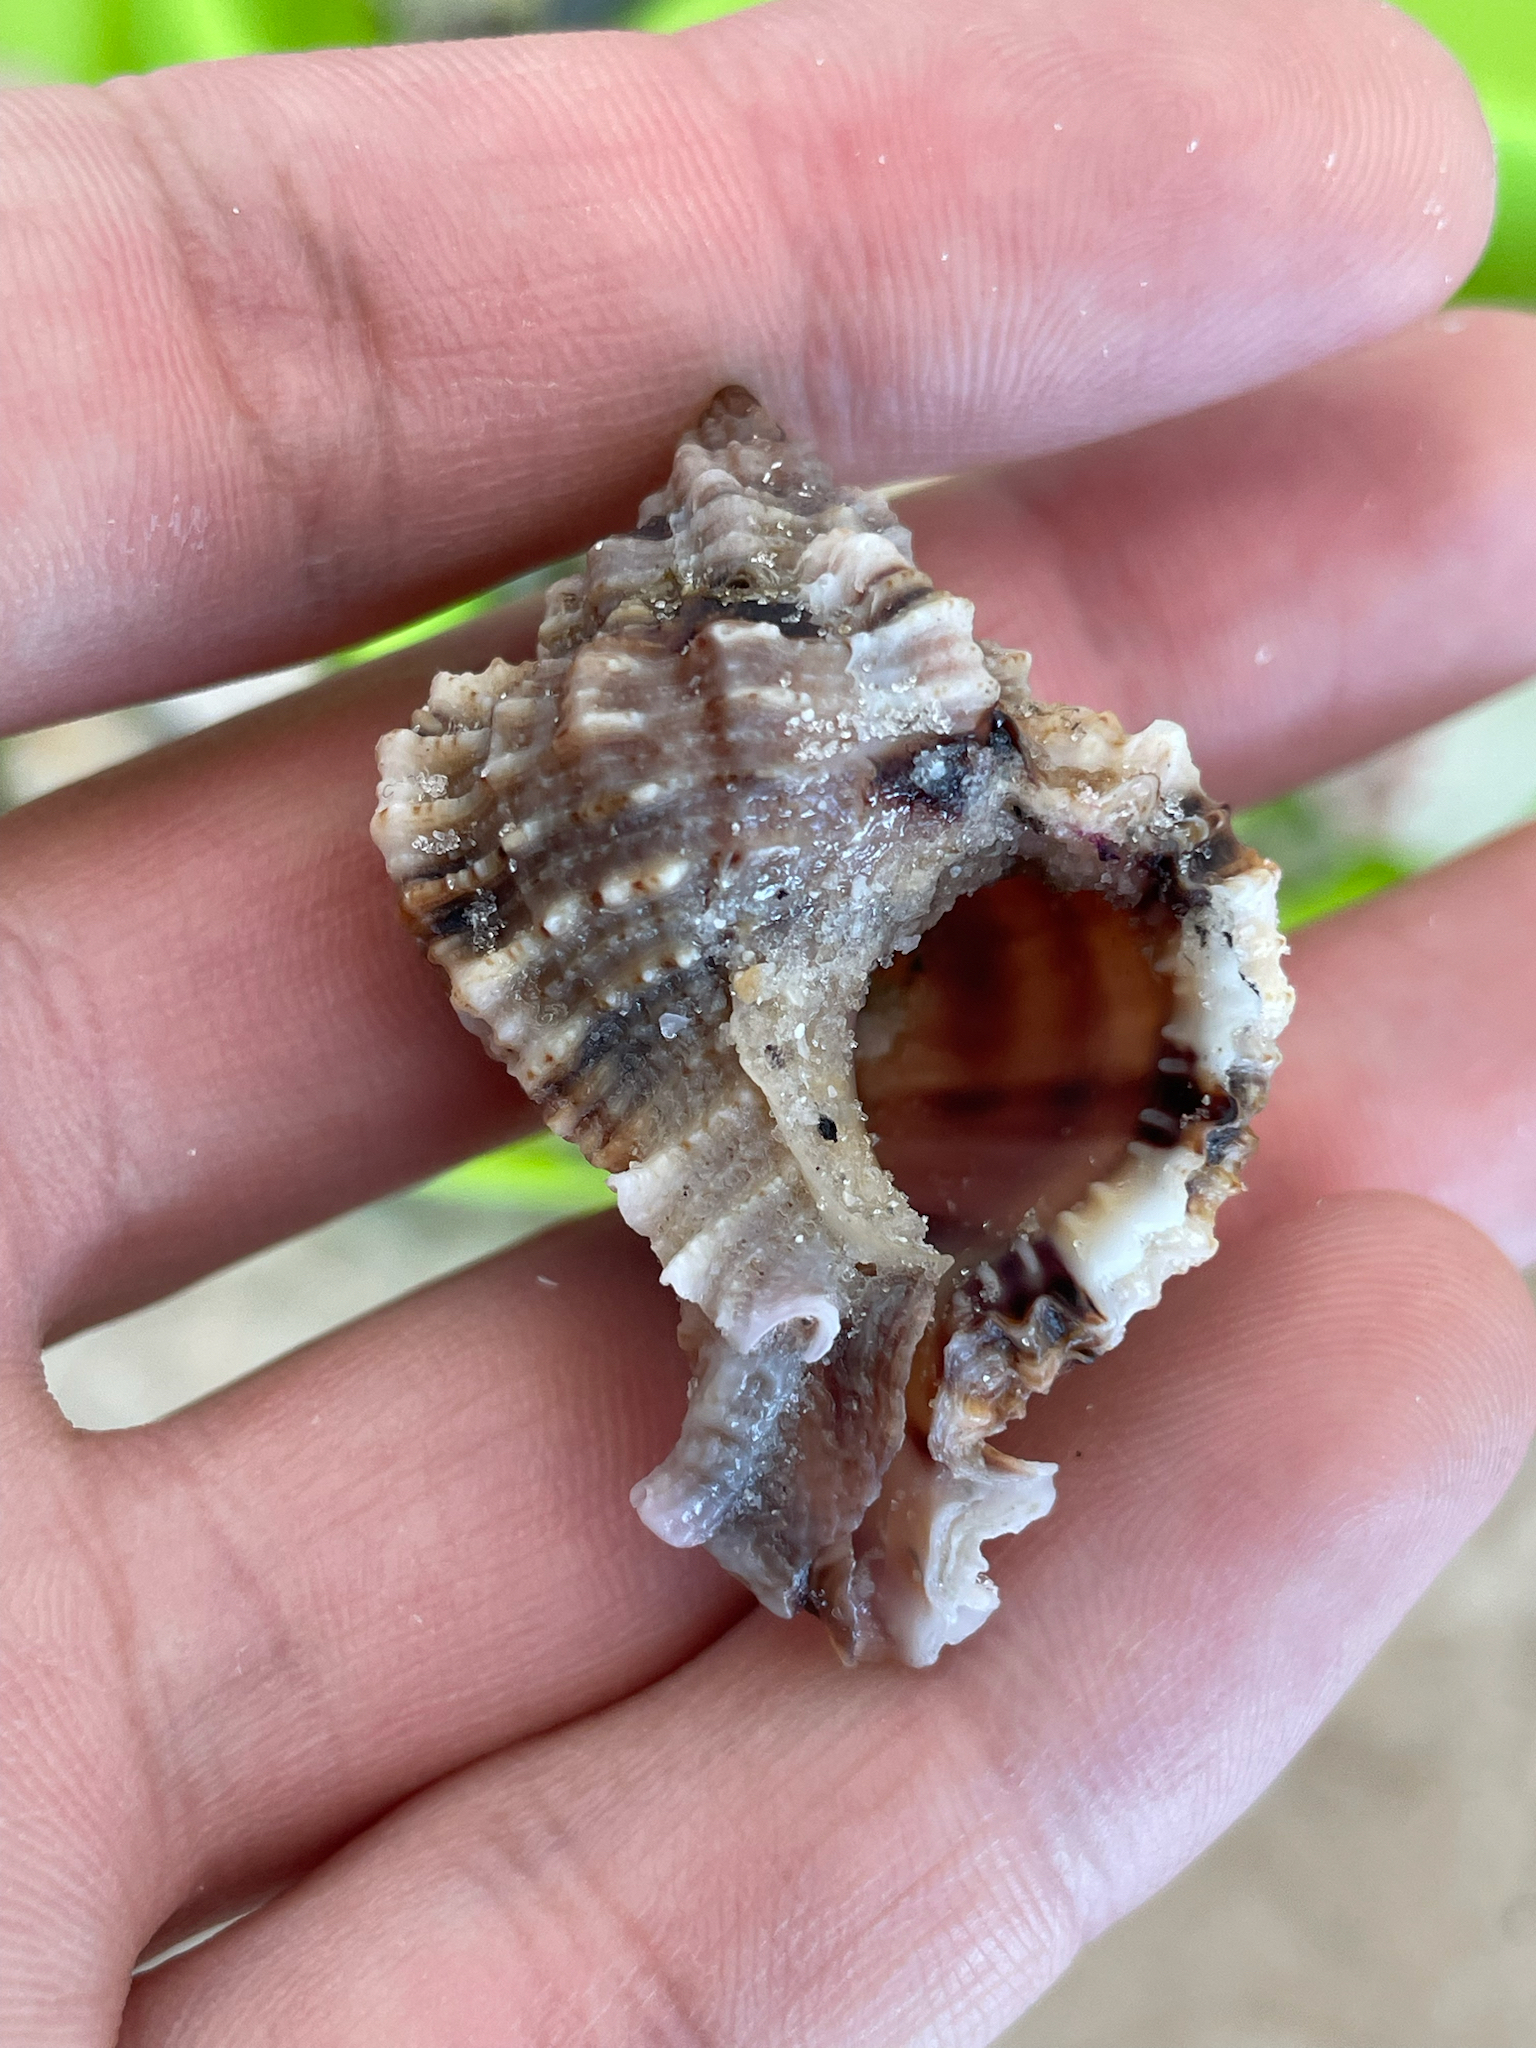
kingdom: Animalia
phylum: Mollusca
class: Gastropoda
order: Neogastropoda
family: Muricidae
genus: Phyllonotus
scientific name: Phyllonotus pomum
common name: Apple murex
